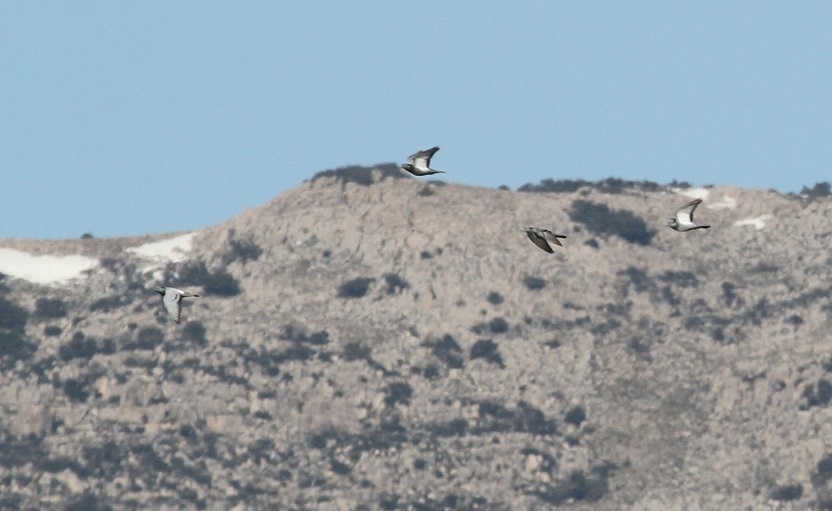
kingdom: Animalia
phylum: Chordata
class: Aves
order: Columbiformes
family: Columbidae
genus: Columba
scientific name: Columba livia
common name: Rock pigeon
